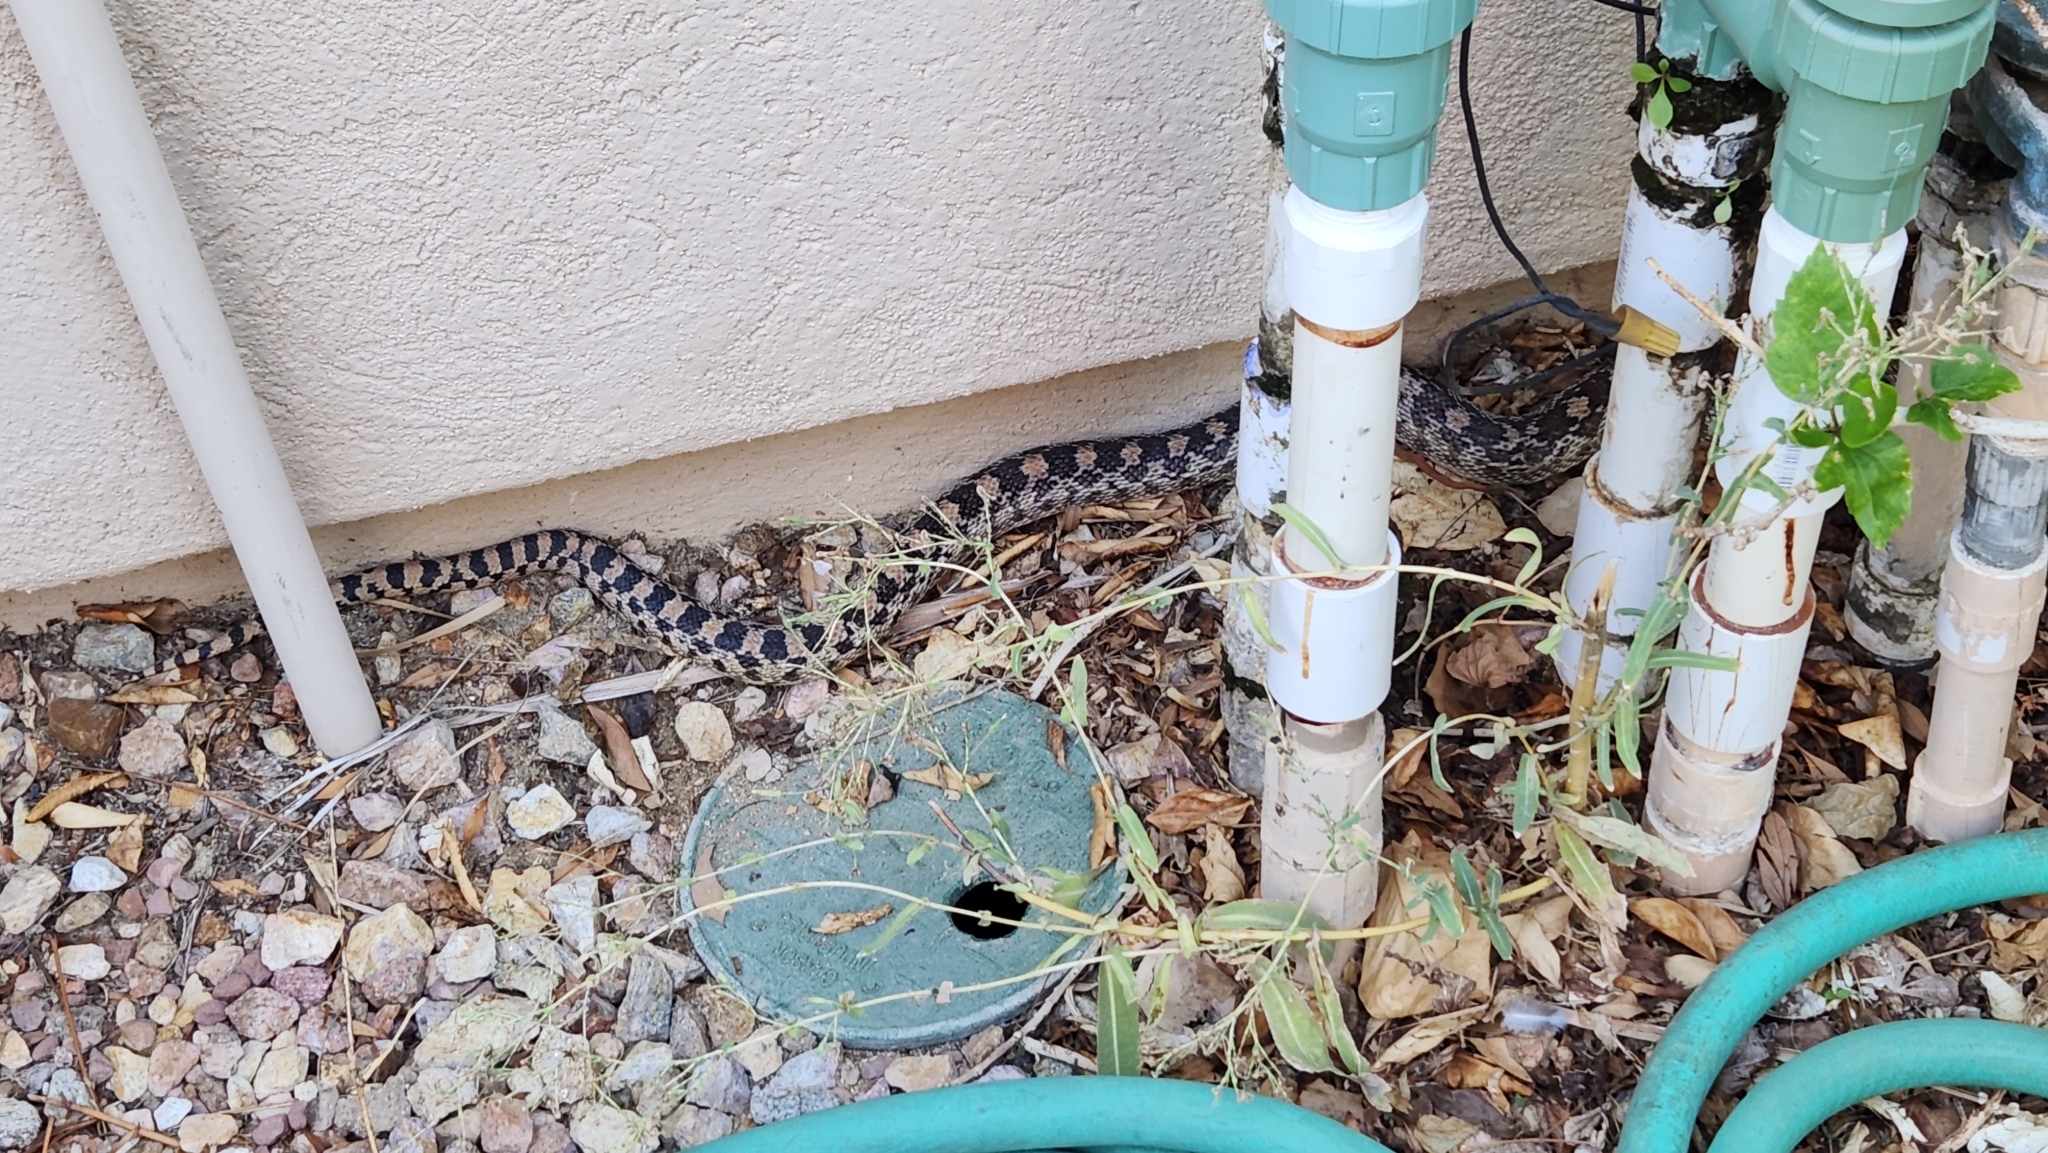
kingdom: Animalia
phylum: Chordata
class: Squamata
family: Colubridae
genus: Pituophis
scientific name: Pituophis catenifer
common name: Gopher snake
